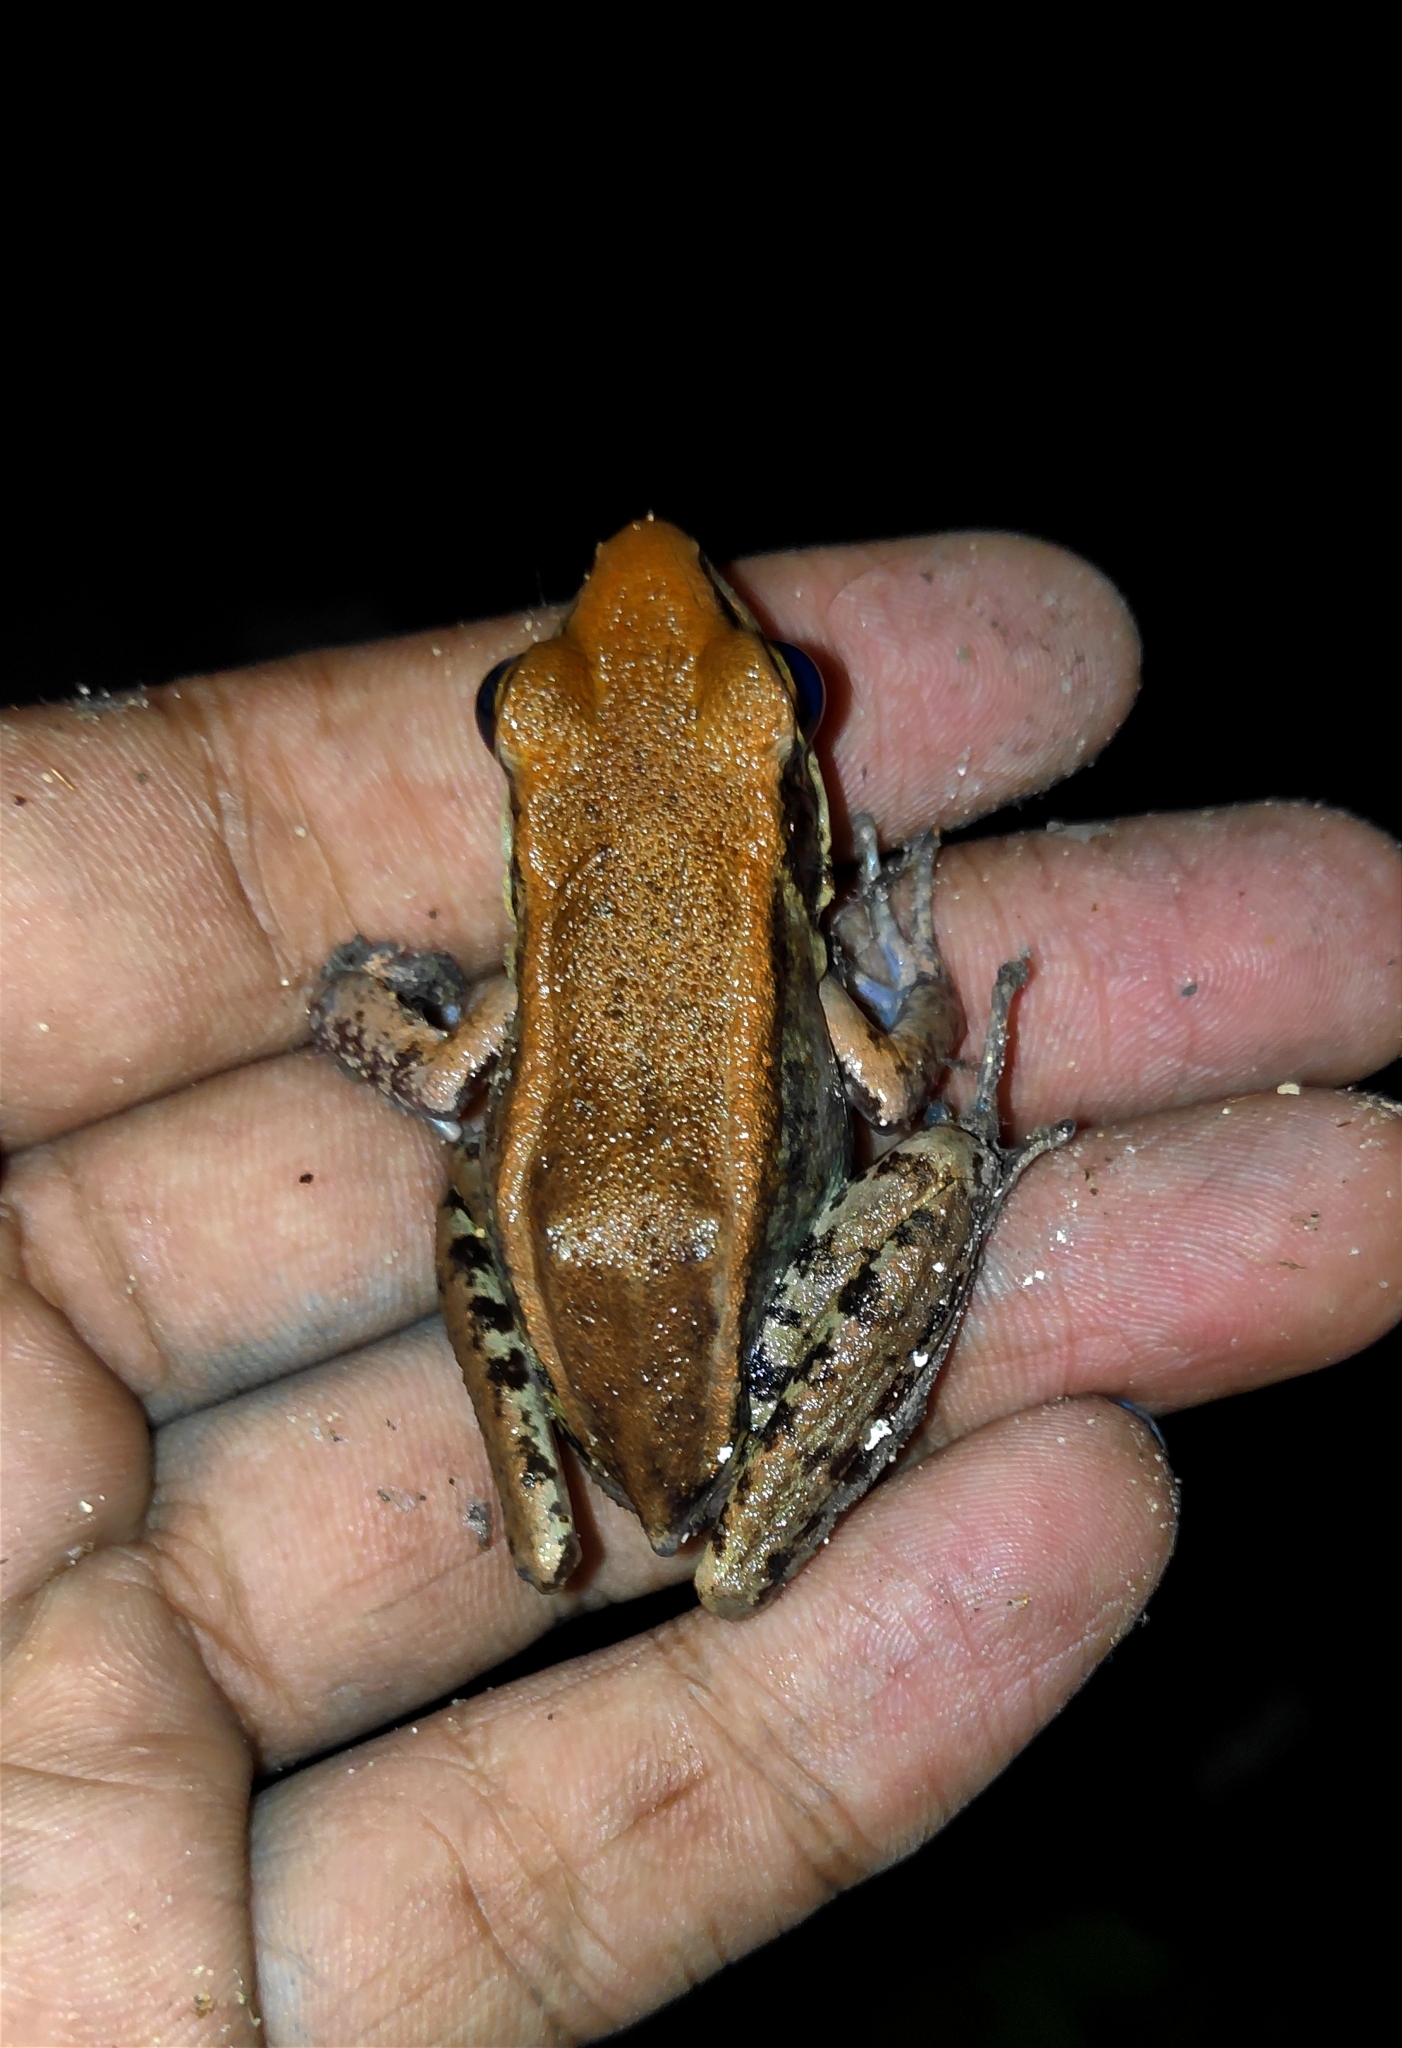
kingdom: Animalia
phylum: Chordata
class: Amphibia
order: Anura
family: Ranidae
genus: Hydrophylax
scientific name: Hydrophylax leptoglossa
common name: Cope's assam frog
